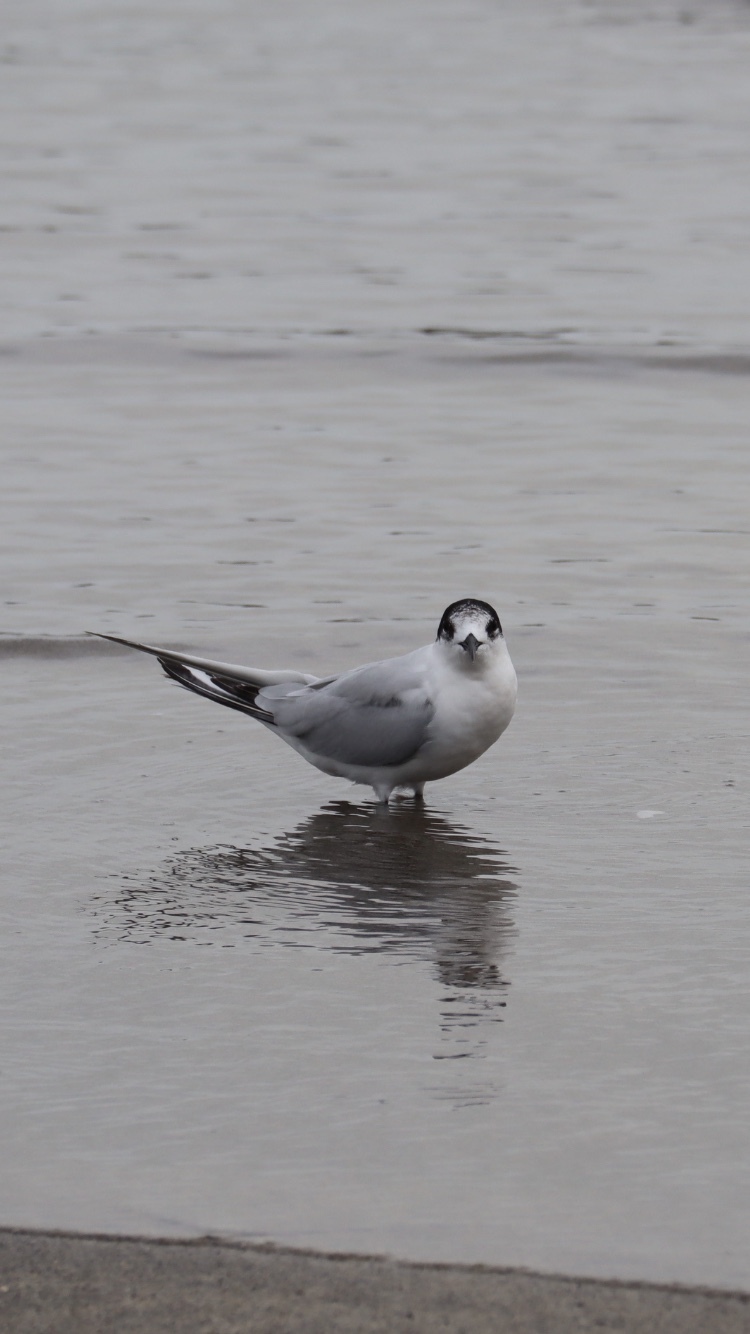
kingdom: Animalia
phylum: Chordata
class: Aves
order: Charadriiformes
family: Laridae
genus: Sterna
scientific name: Sterna striata
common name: White-fronted tern
